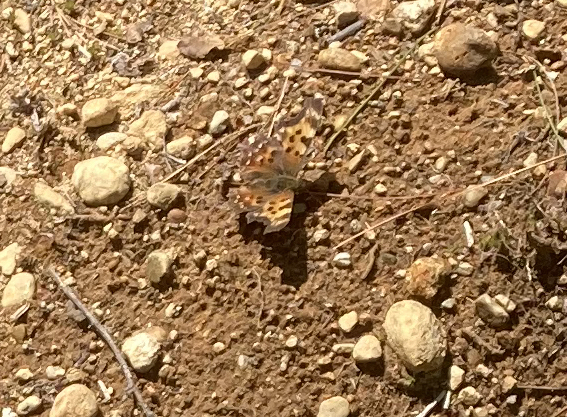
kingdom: Animalia
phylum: Arthropoda
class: Insecta
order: Lepidoptera
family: Nymphalidae
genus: Polygonia
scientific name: Polygonia faunus
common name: Green comma
